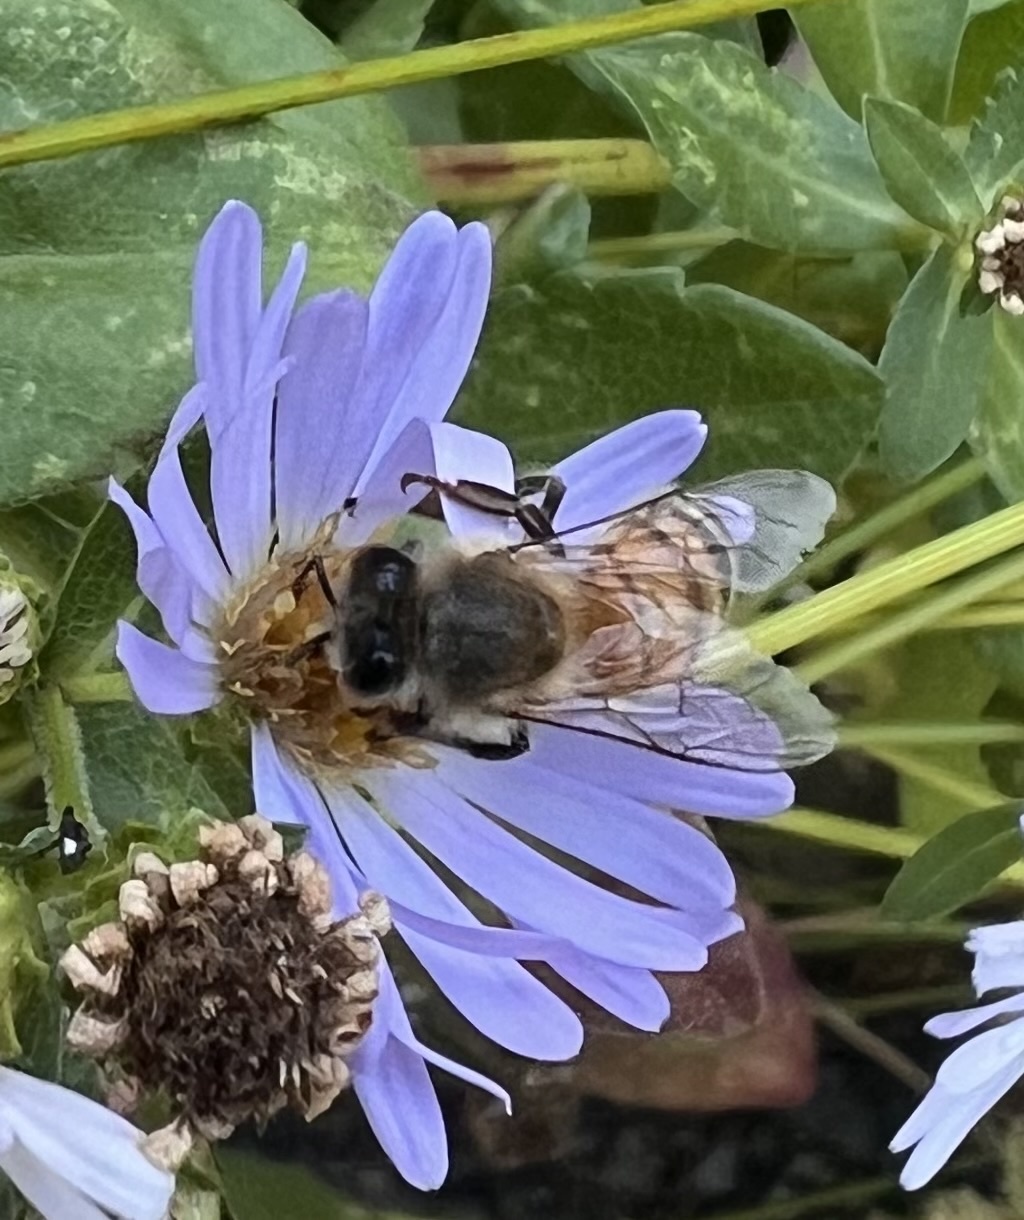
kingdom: Animalia
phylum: Arthropoda
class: Insecta
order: Hymenoptera
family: Apidae
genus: Apis
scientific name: Apis mellifera
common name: Honey bee
